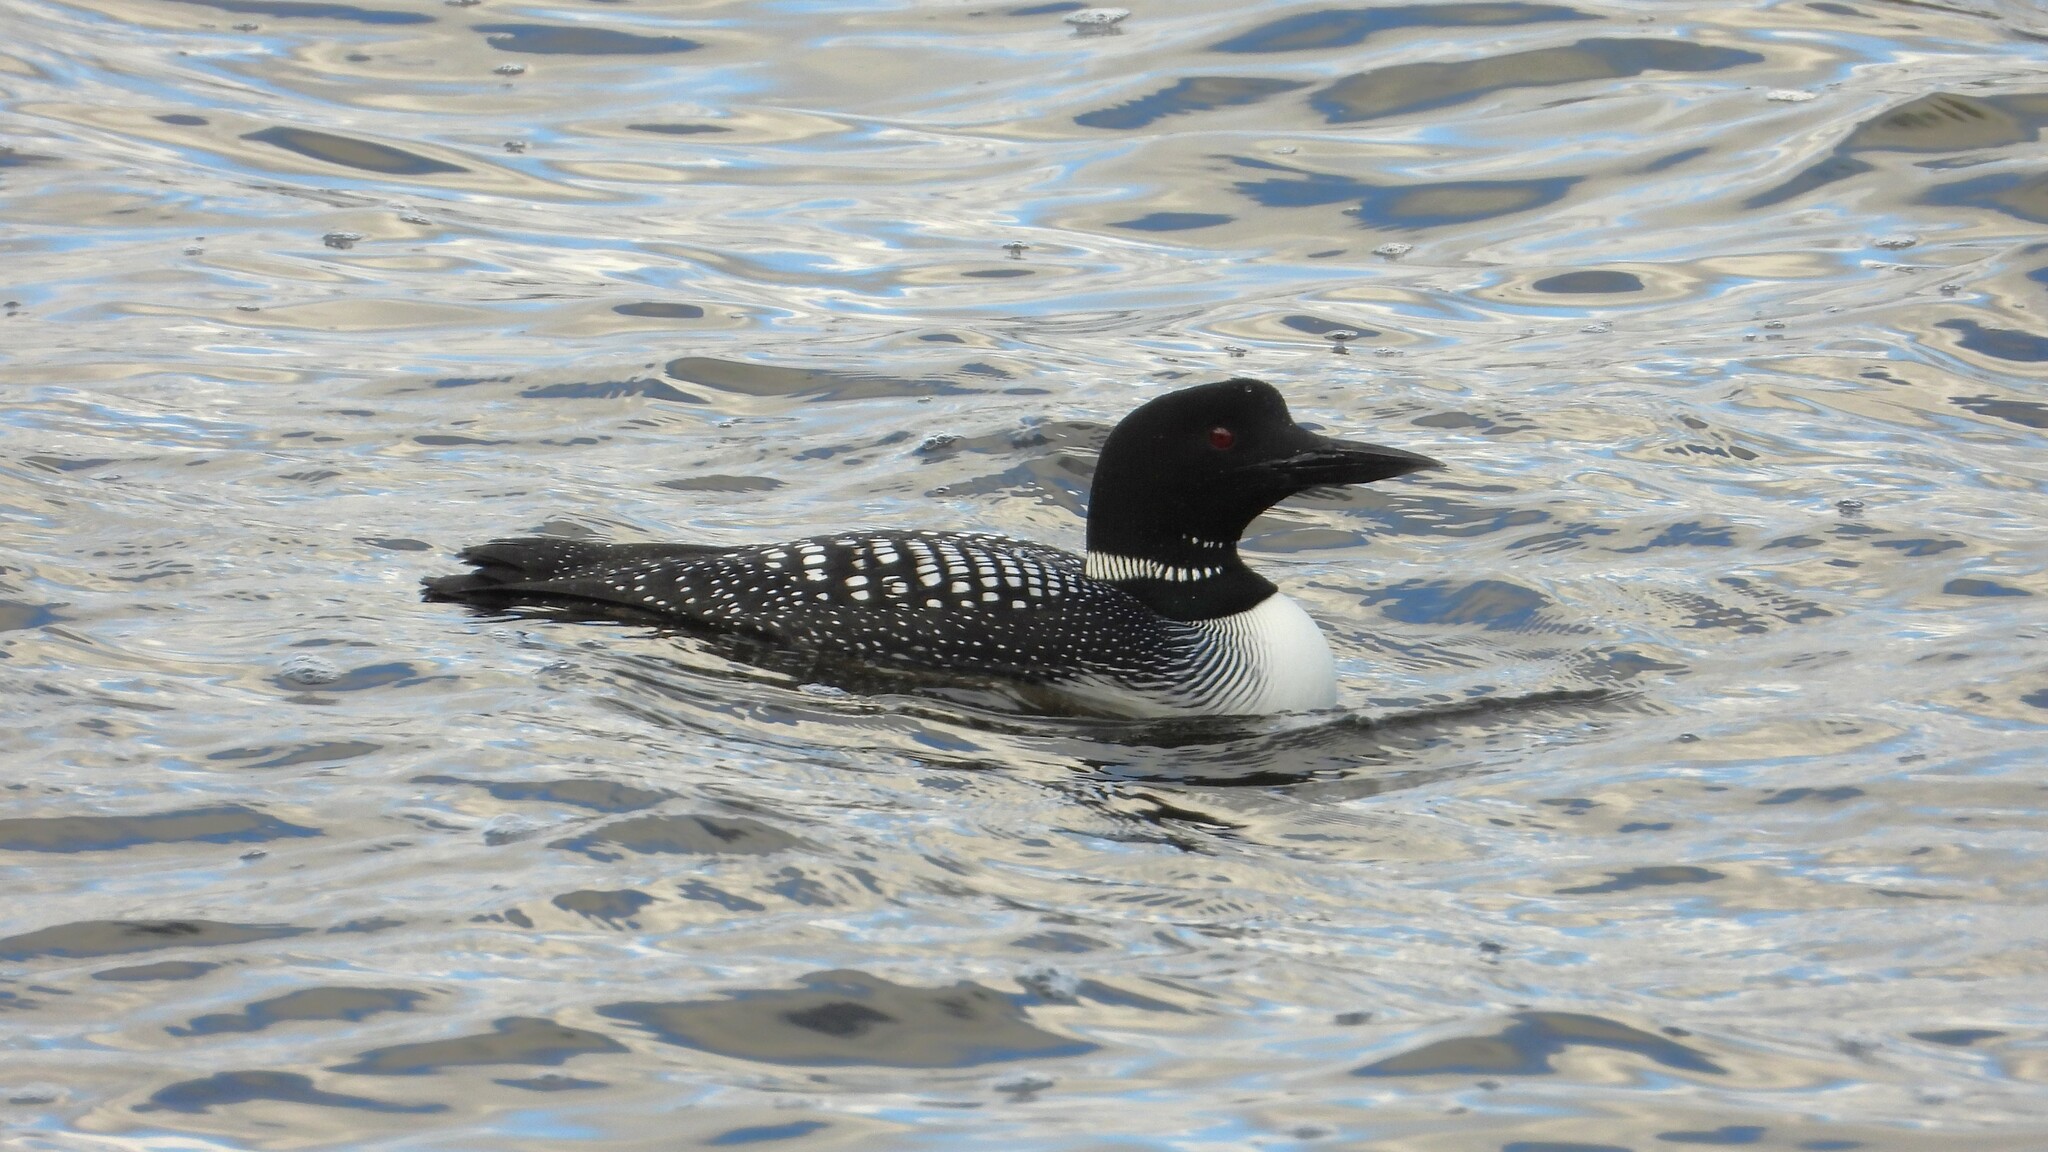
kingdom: Animalia
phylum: Chordata
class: Aves
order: Gaviiformes
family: Gaviidae
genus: Gavia
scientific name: Gavia immer
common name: Common loon
